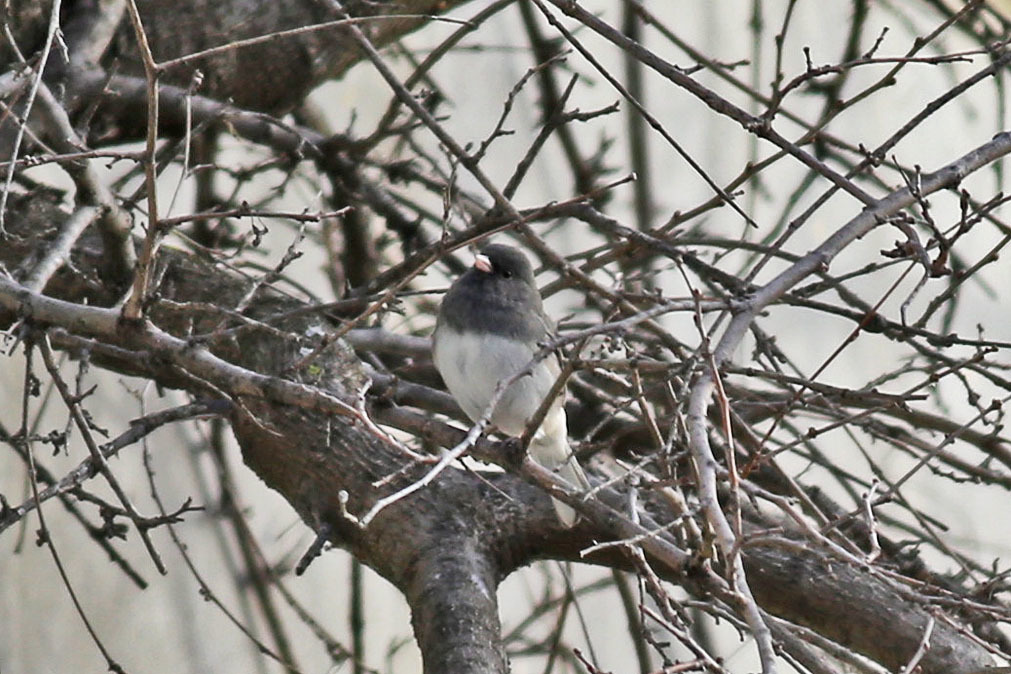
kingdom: Animalia
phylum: Chordata
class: Aves
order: Passeriformes
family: Passerellidae
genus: Junco
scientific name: Junco hyemalis
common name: Dark-eyed junco
